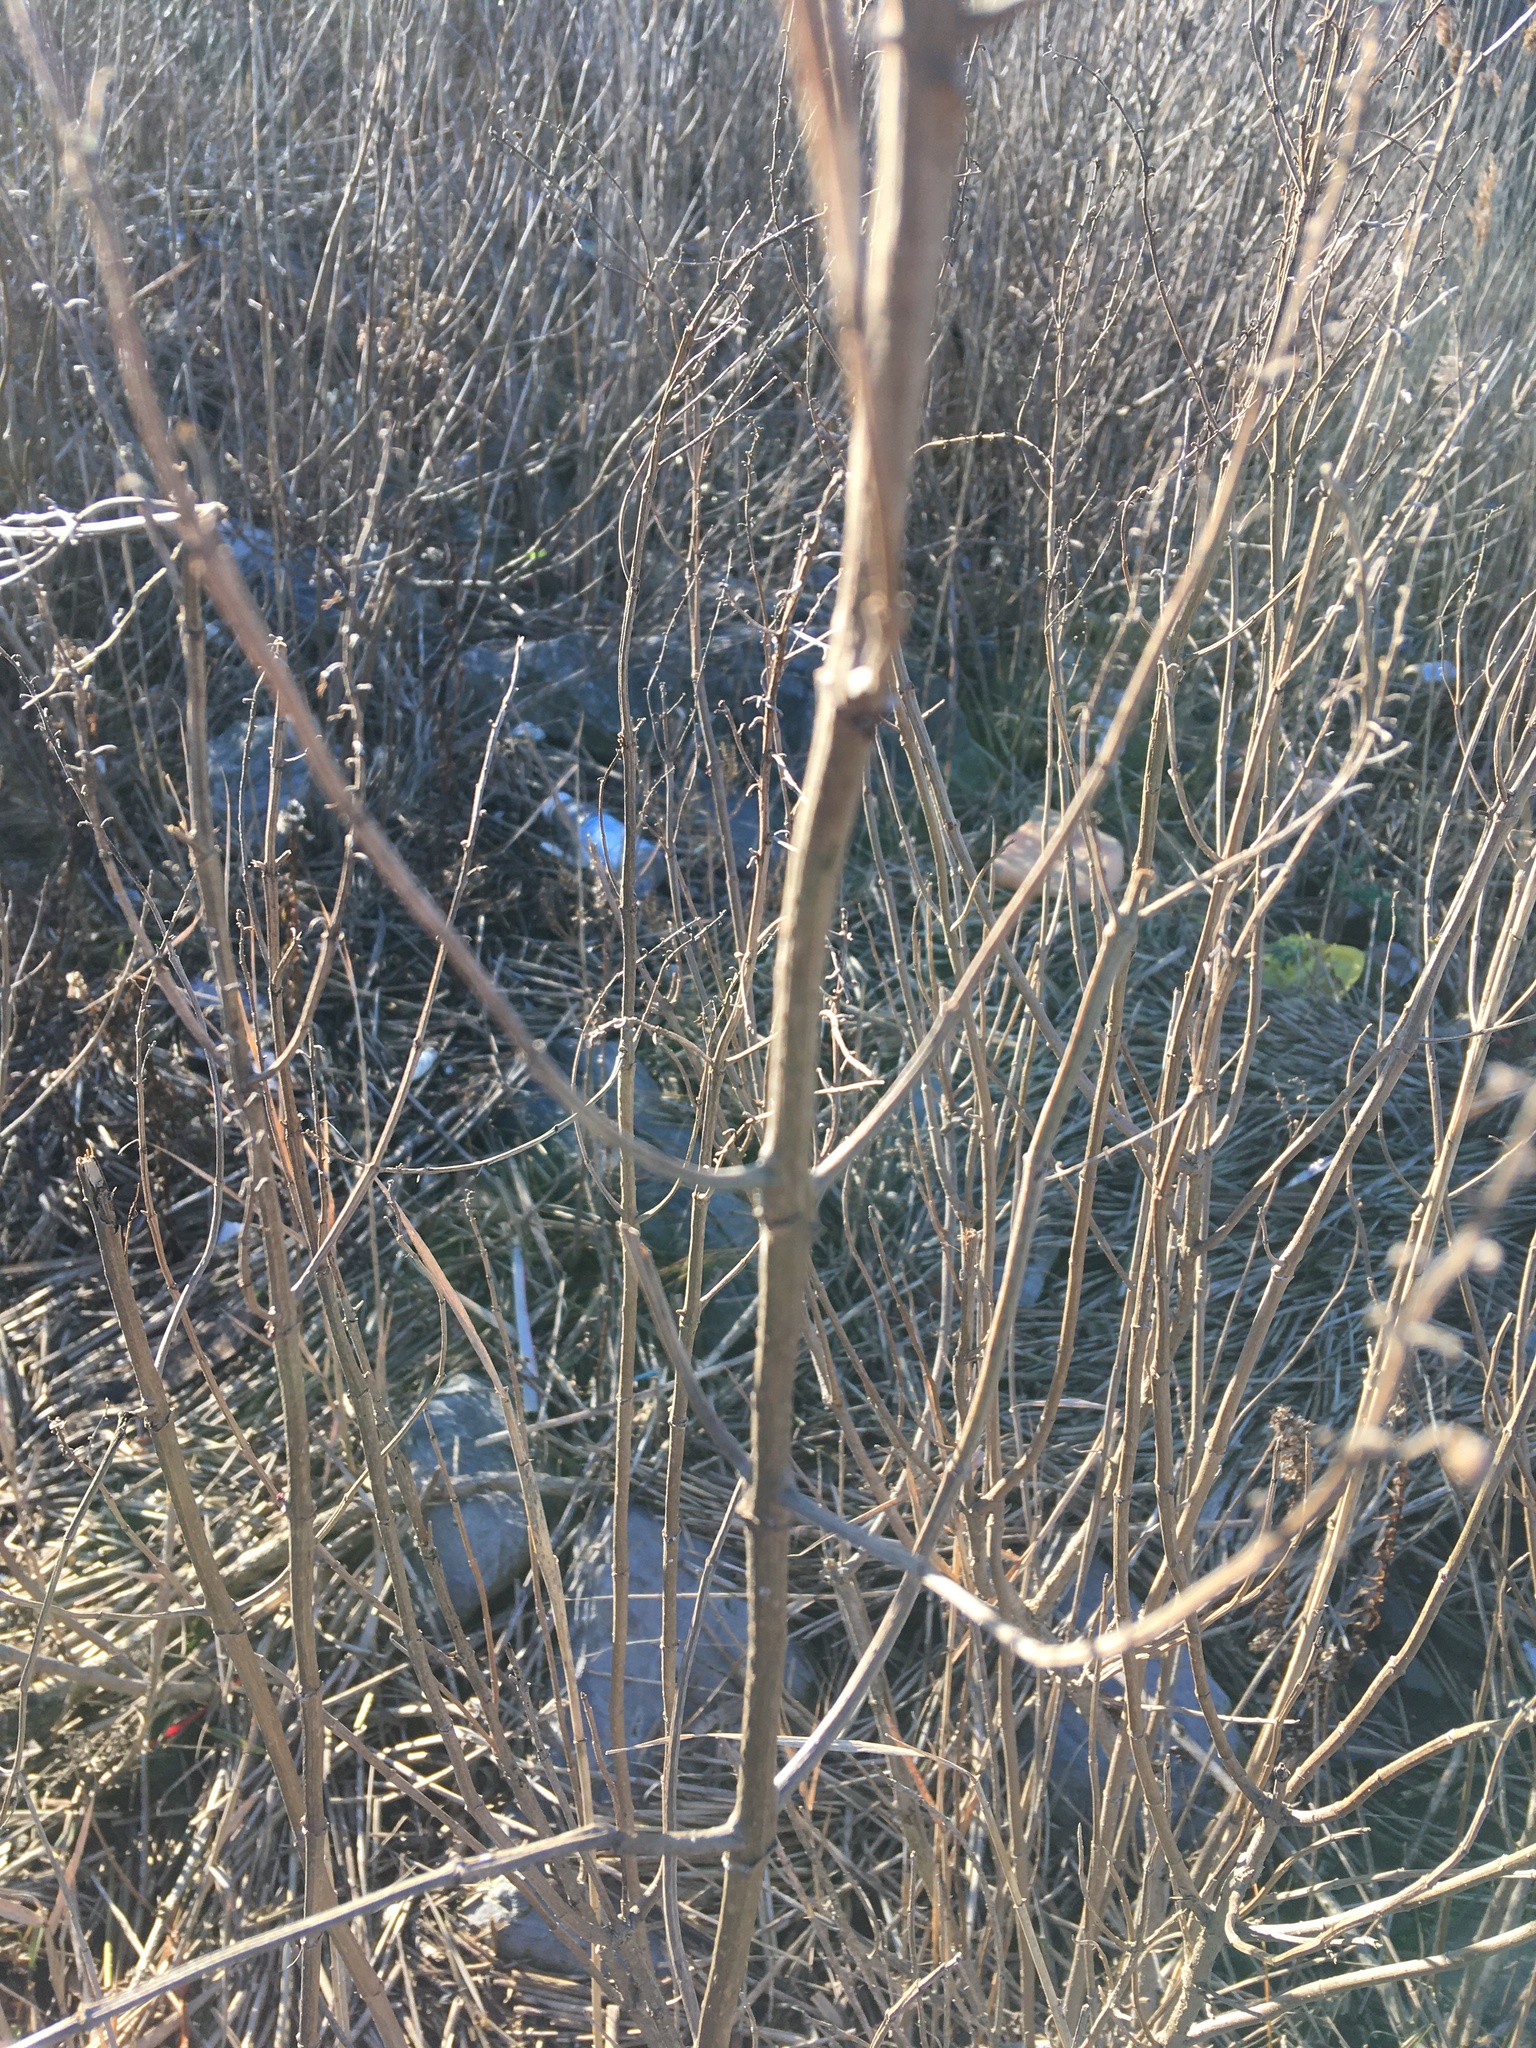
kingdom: Plantae
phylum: Tracheophyta
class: Magnoliopsida
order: Asterales
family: Asteraceae
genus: Iva
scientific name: Iva frutescens
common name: Big-leaved marsh-elder
